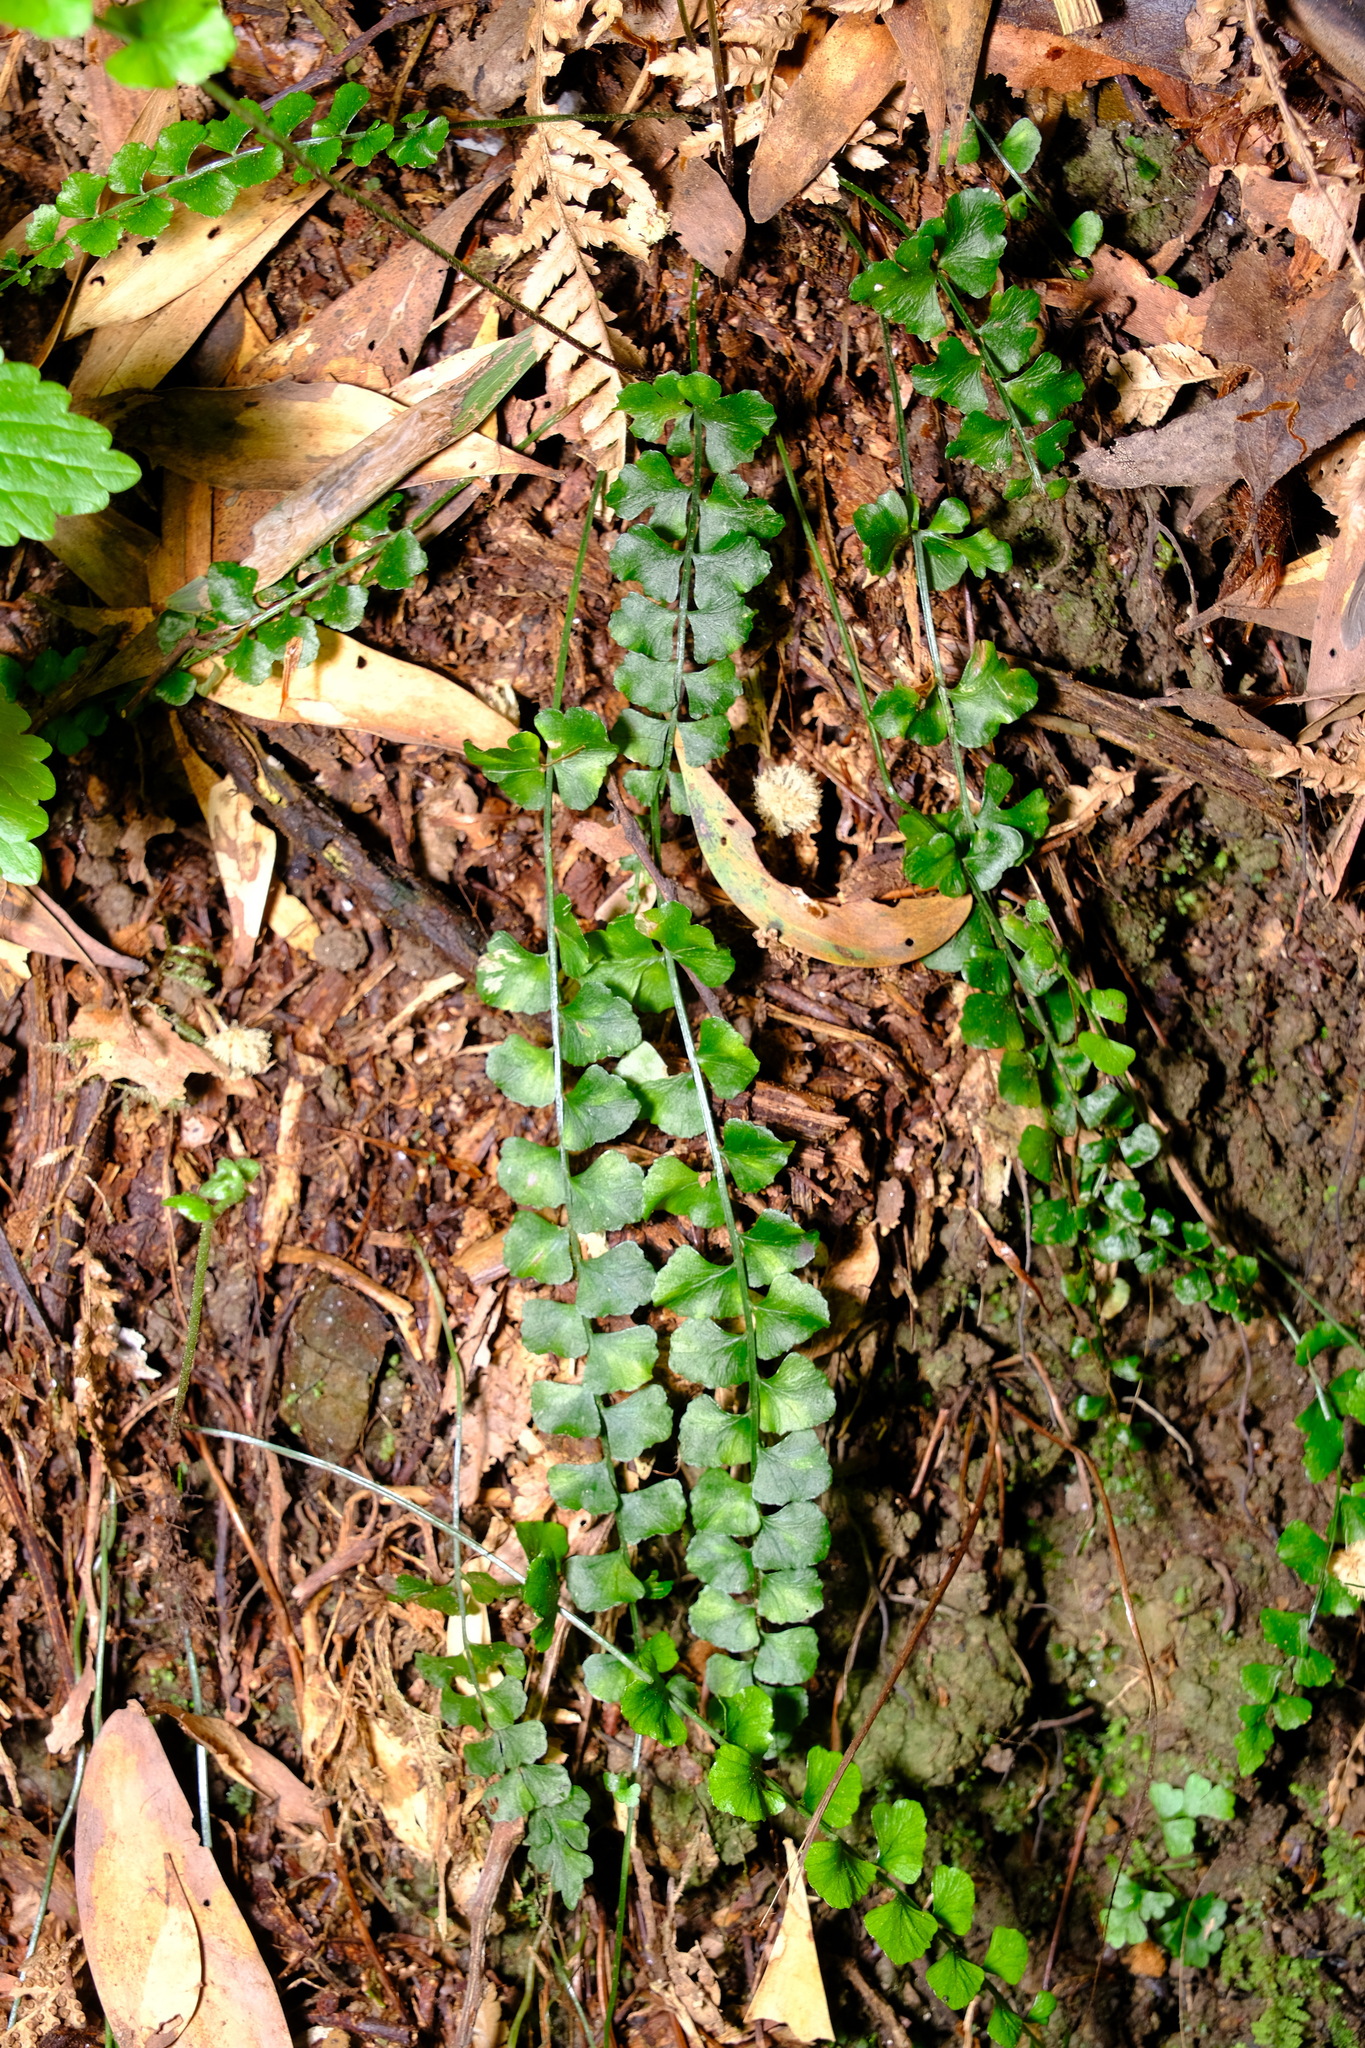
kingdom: Plantae
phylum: Tracheophyta
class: Polypodiopsida
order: Polypodiales
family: Aspleniaceae
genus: Asplenium
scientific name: Asplenium flabellifolium
